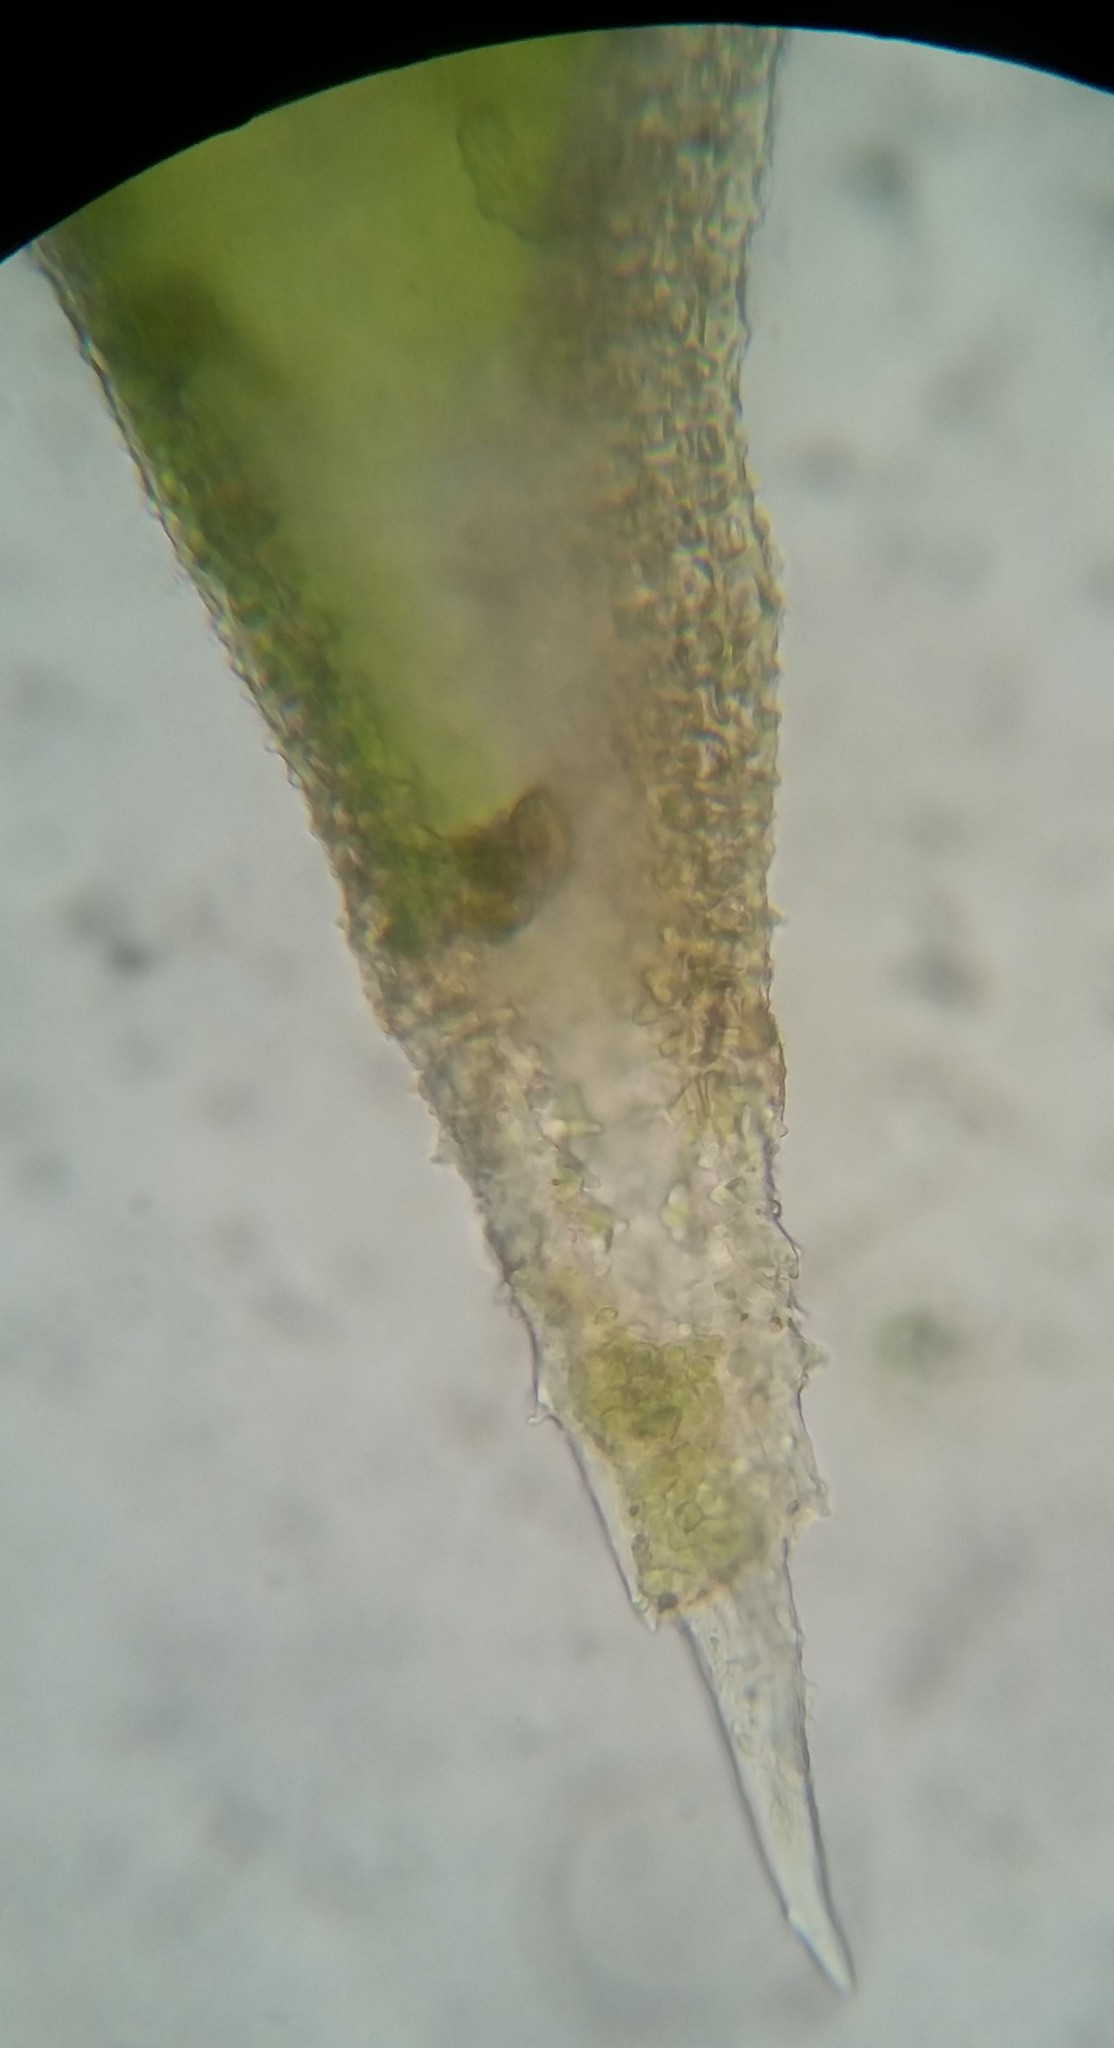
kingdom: Plantae
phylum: Bryophyta
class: Bryopsida
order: Hedwigiales
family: Hedwigiaceae
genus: Hedwigia
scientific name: Hedwigia ciliata
